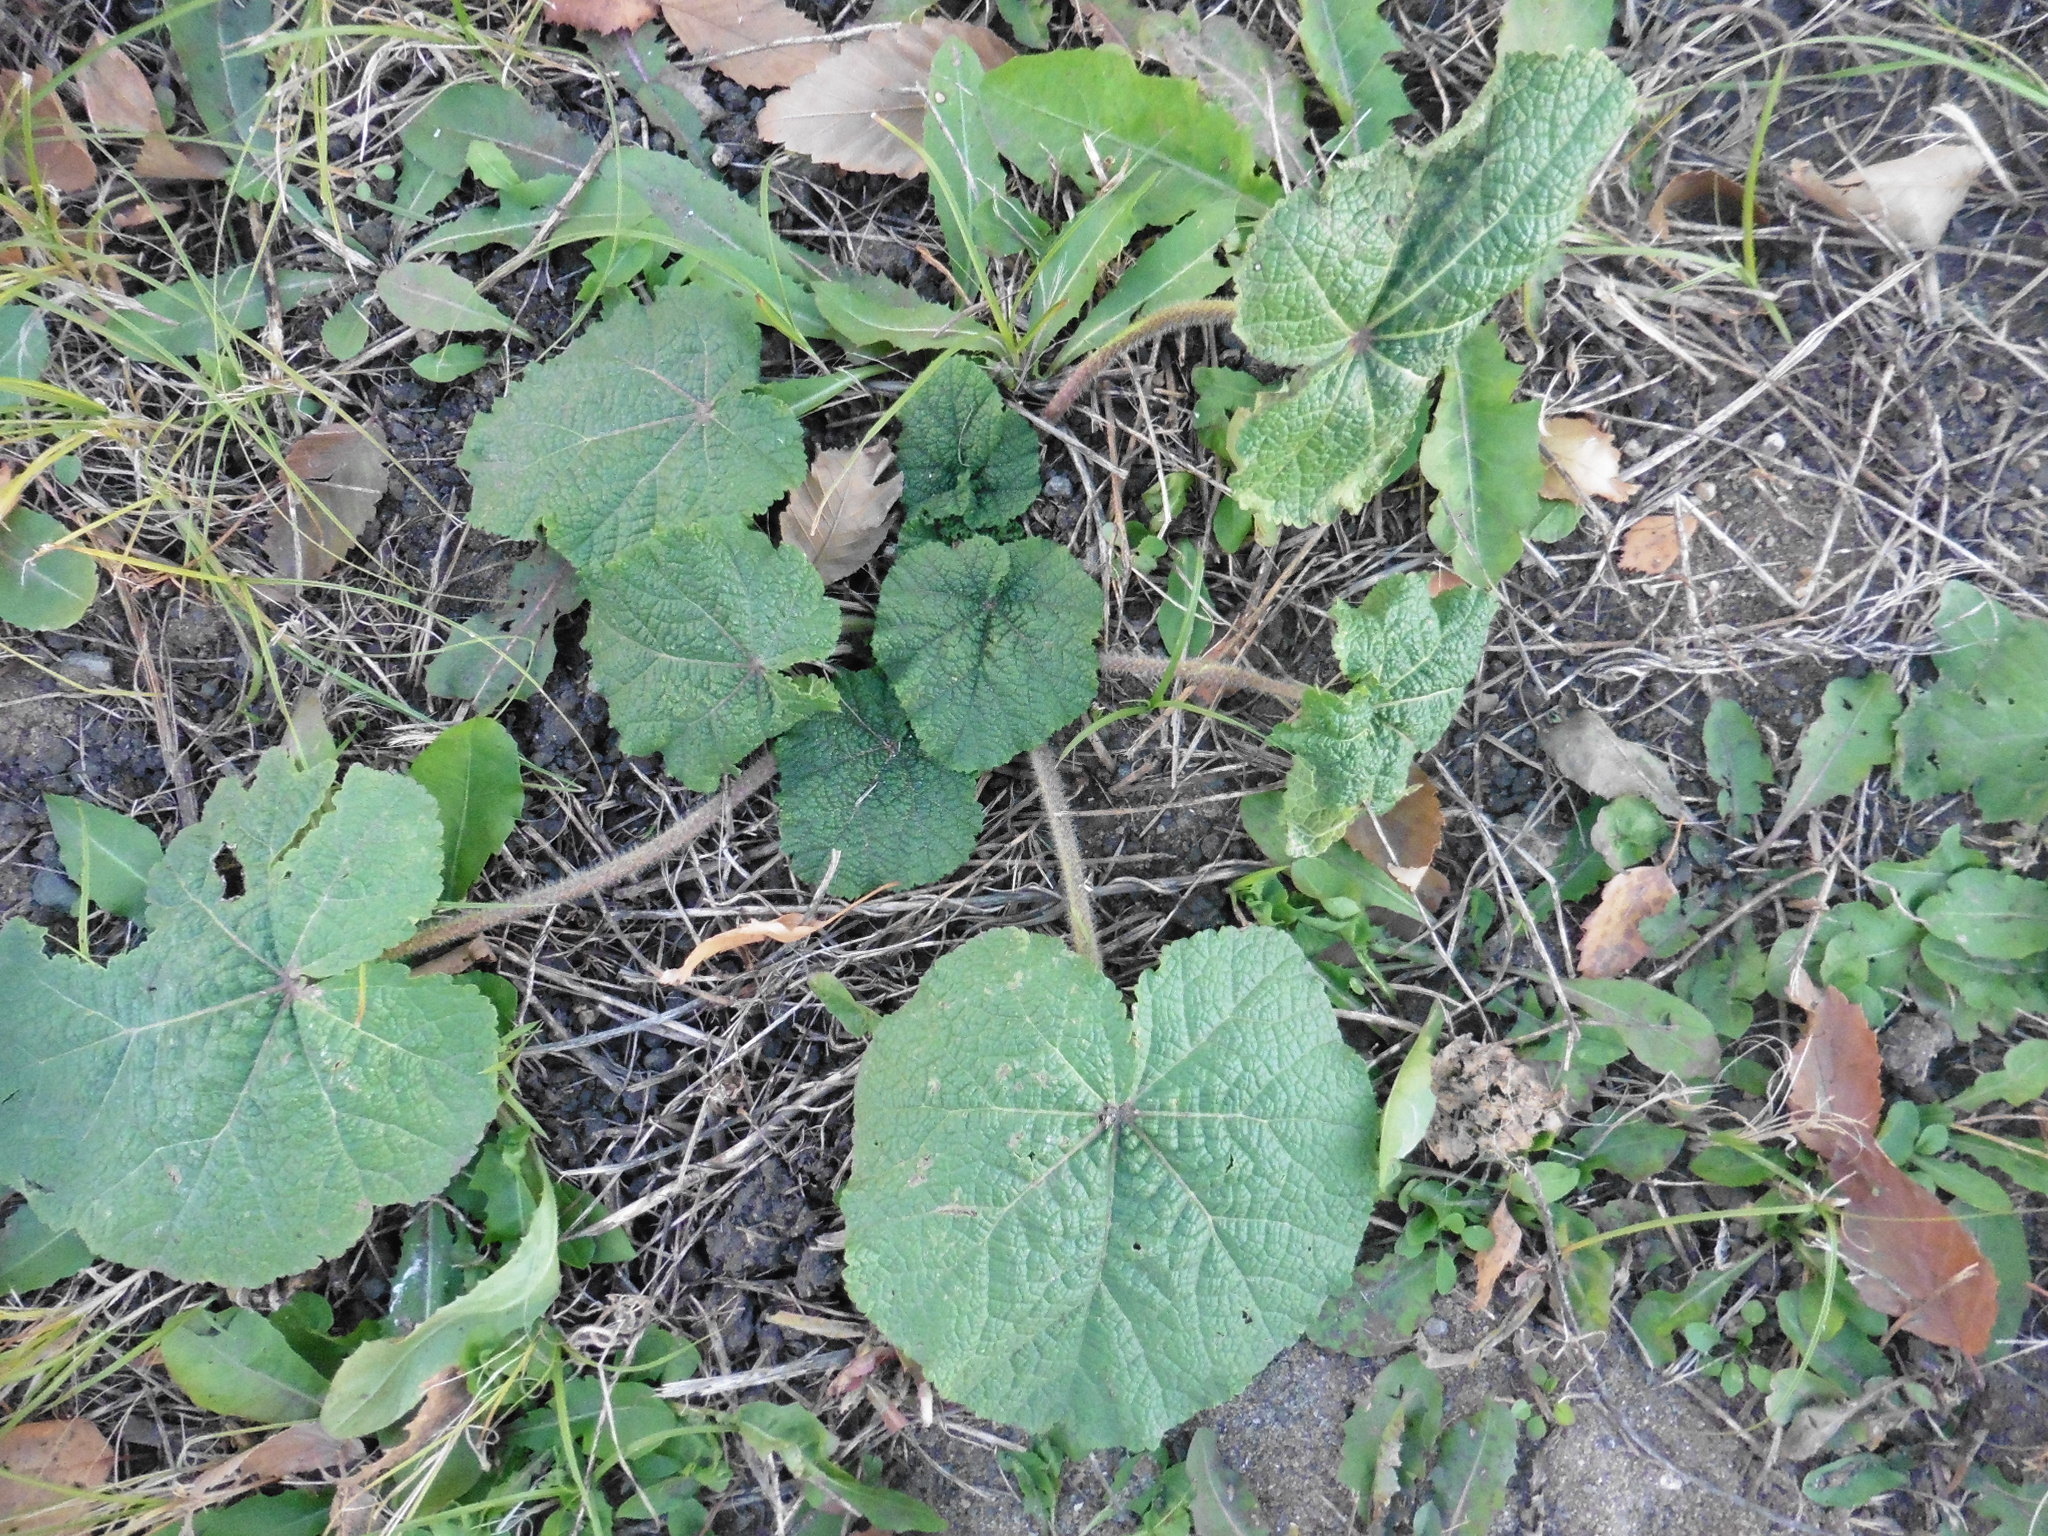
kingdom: Plantae
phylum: Tracheophyta
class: Magnoliopsida
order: Malvales
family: Malvaceae
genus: Alcea
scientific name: Alcea rosea
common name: Hollyhock
